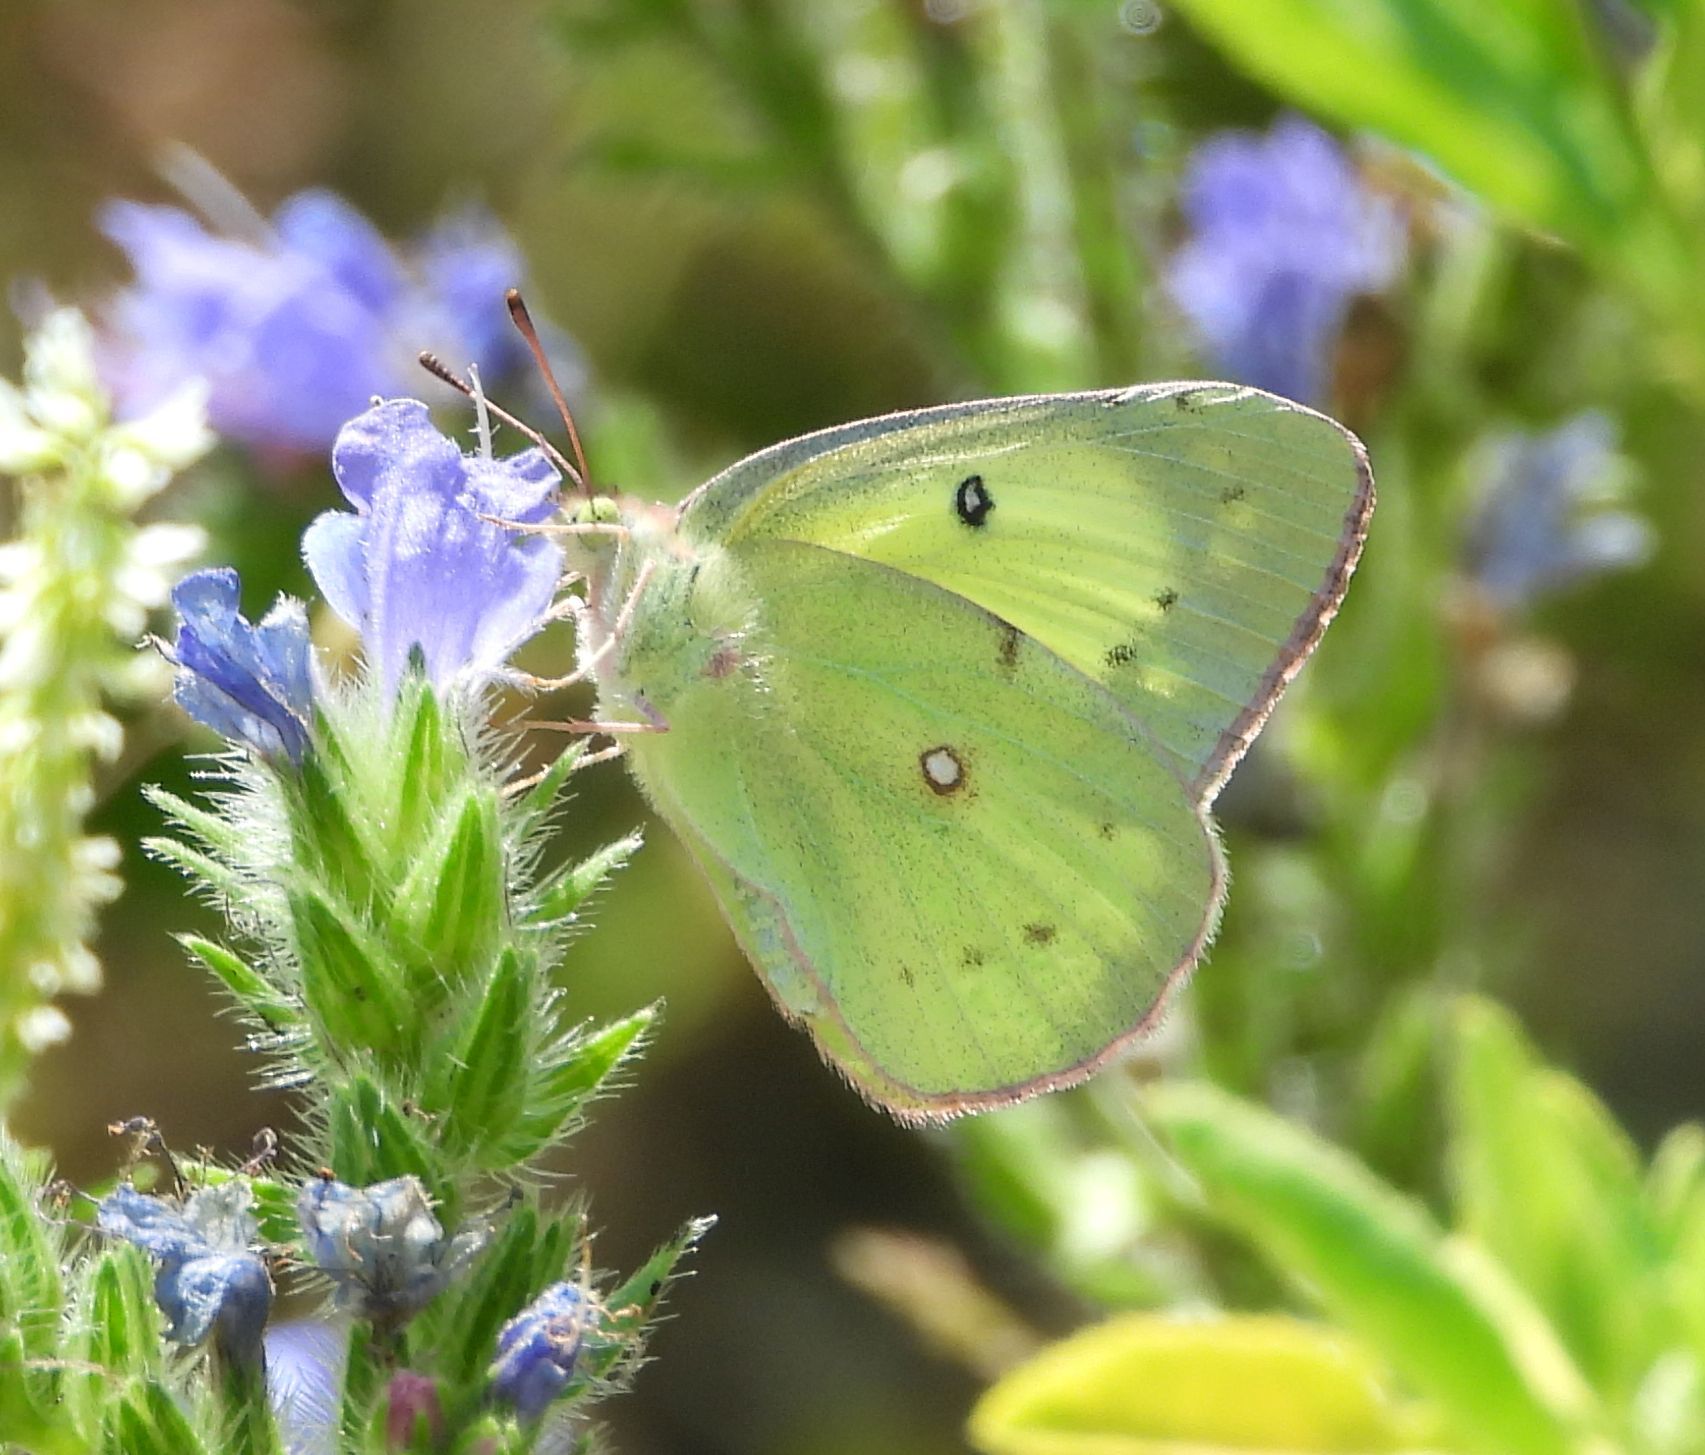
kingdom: Animalia
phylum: Arthropoda
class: Insecta
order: Lepidoptera
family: Pieridae
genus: Colias
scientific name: Colias philodice
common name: Clouded sulphur
